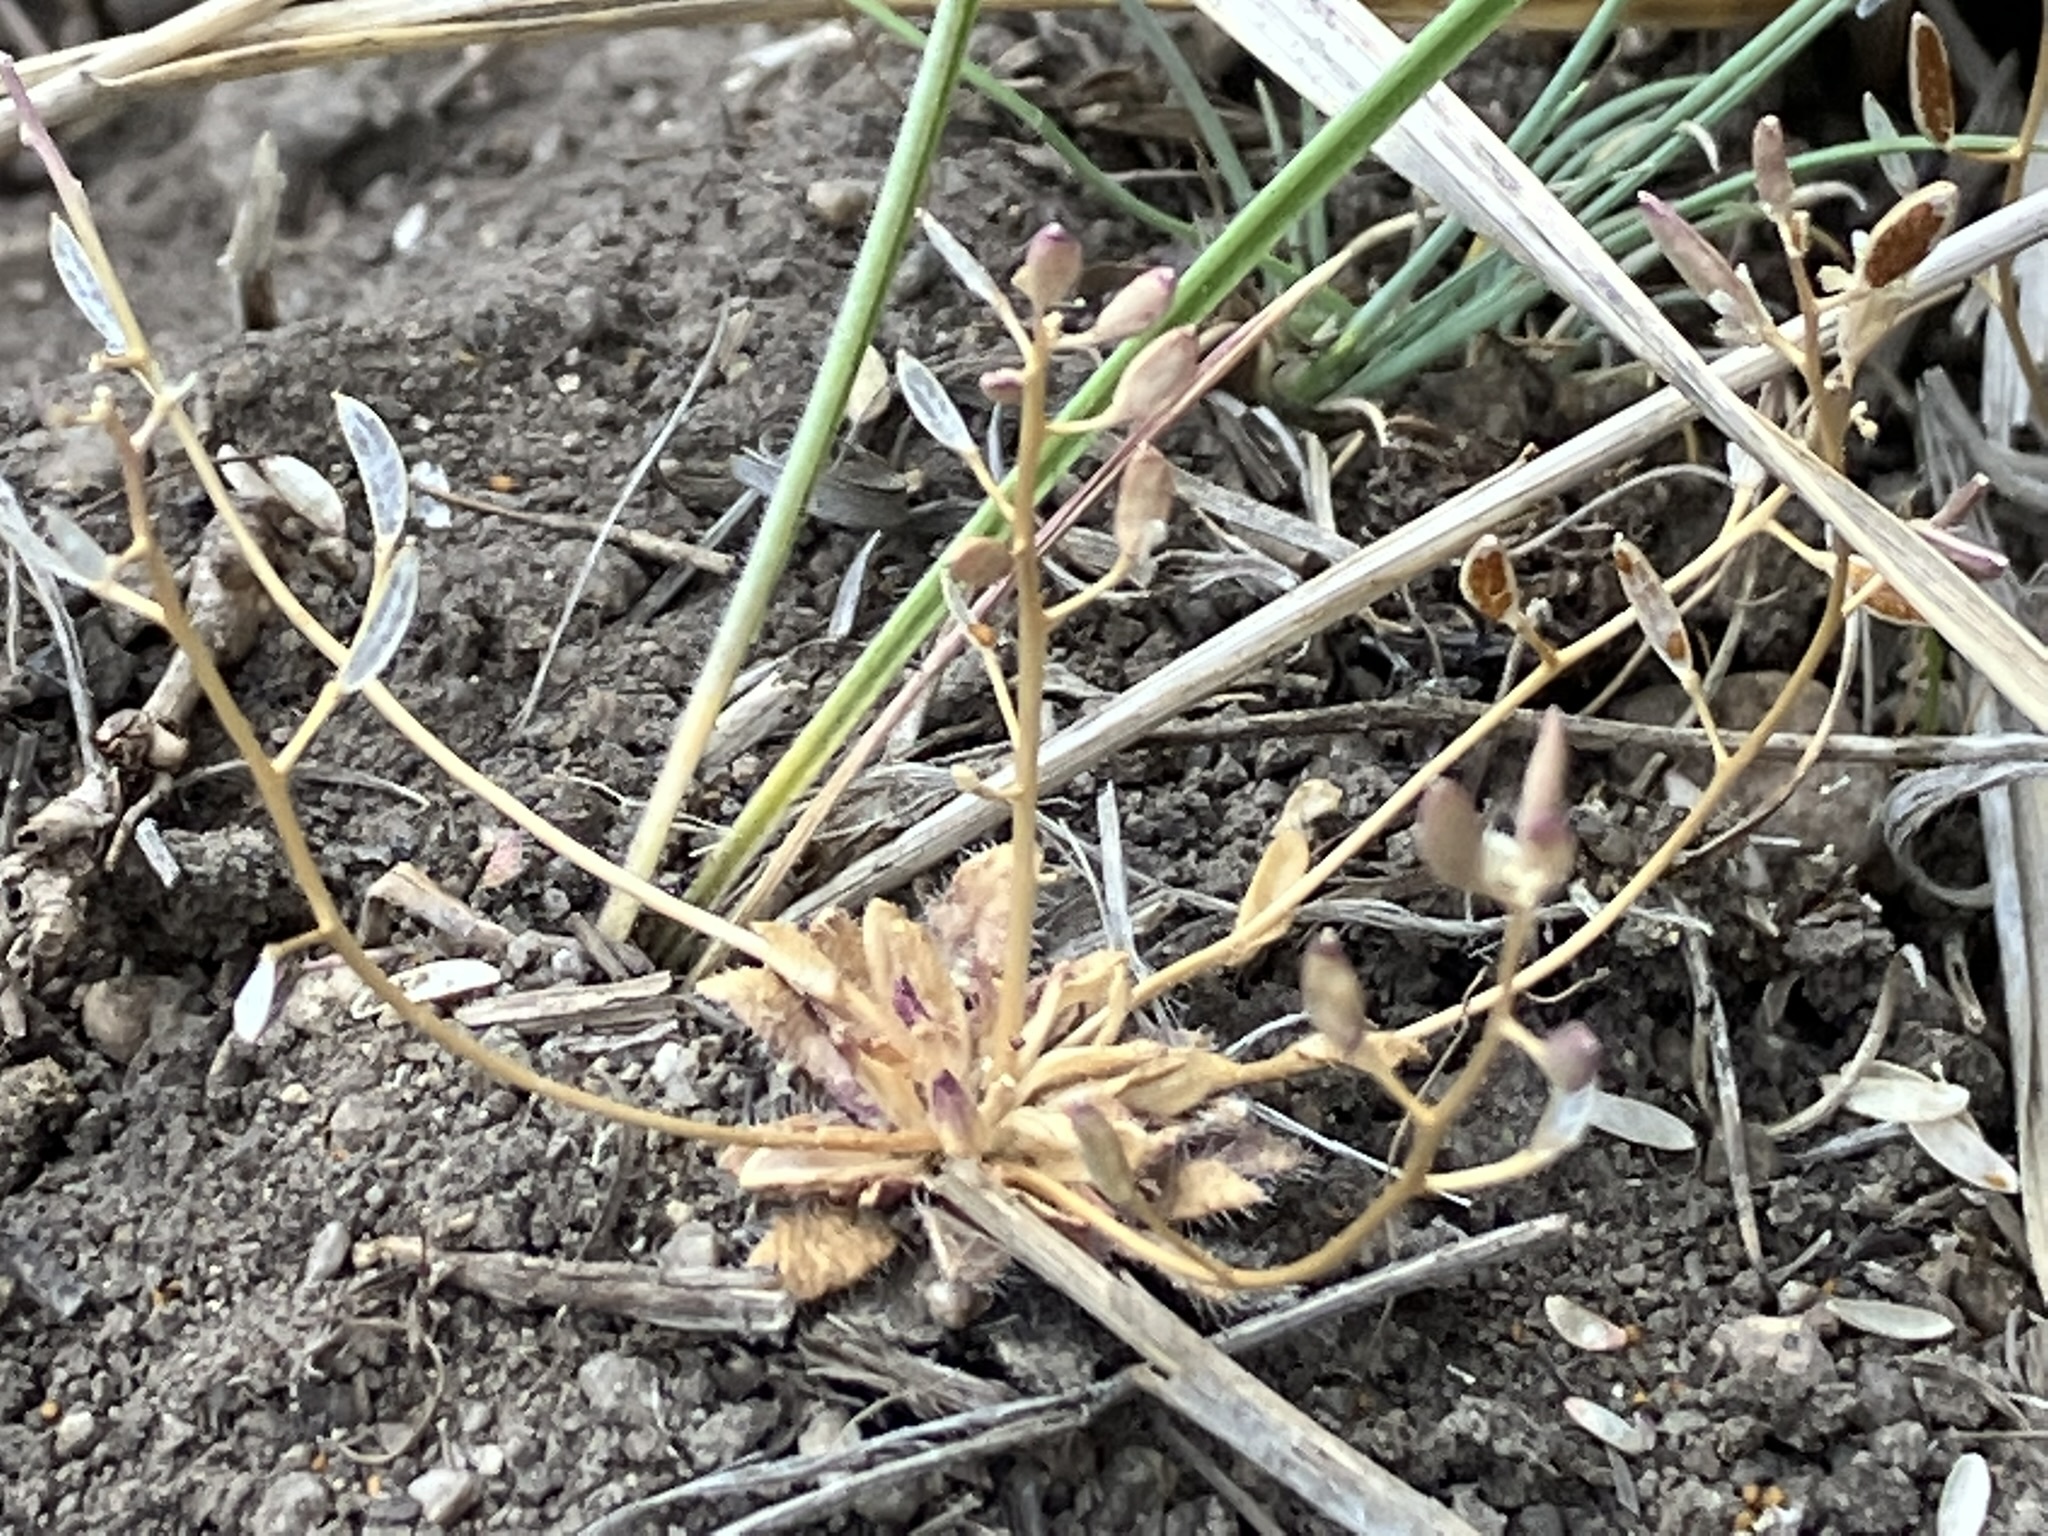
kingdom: Plantae
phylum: Tracheophyta
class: Magnoliopsida
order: Brassicales
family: Brassicaceae
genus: Draba
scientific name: Draba albertina
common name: Slender draba
